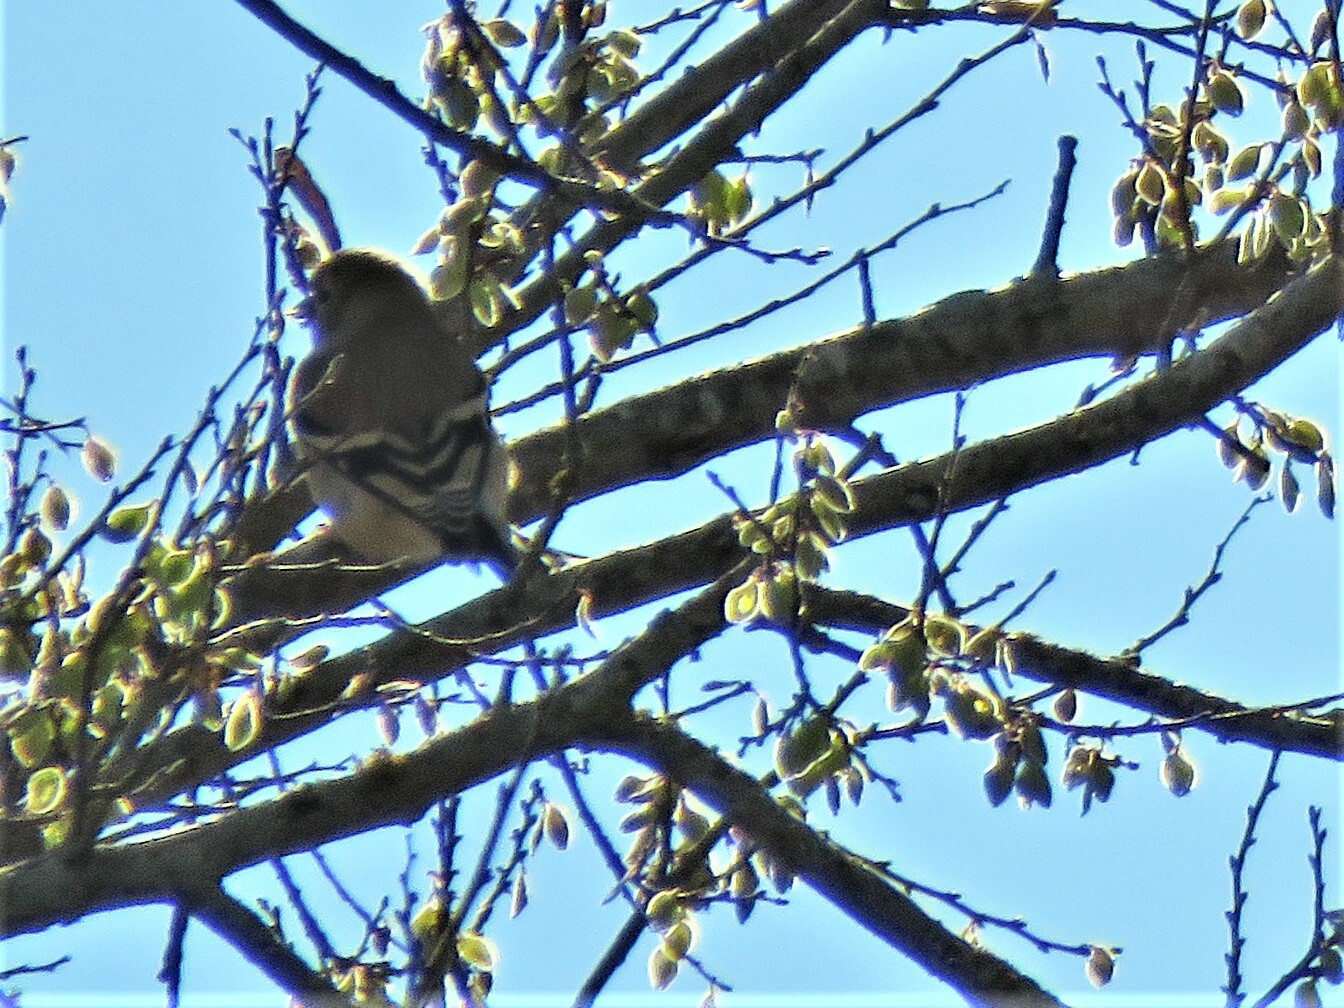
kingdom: Animalia
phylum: Chordata
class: Aves
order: Passeriformes
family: Fringillidae
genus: Spinus
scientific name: Spinus tristis
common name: American goldfinch
